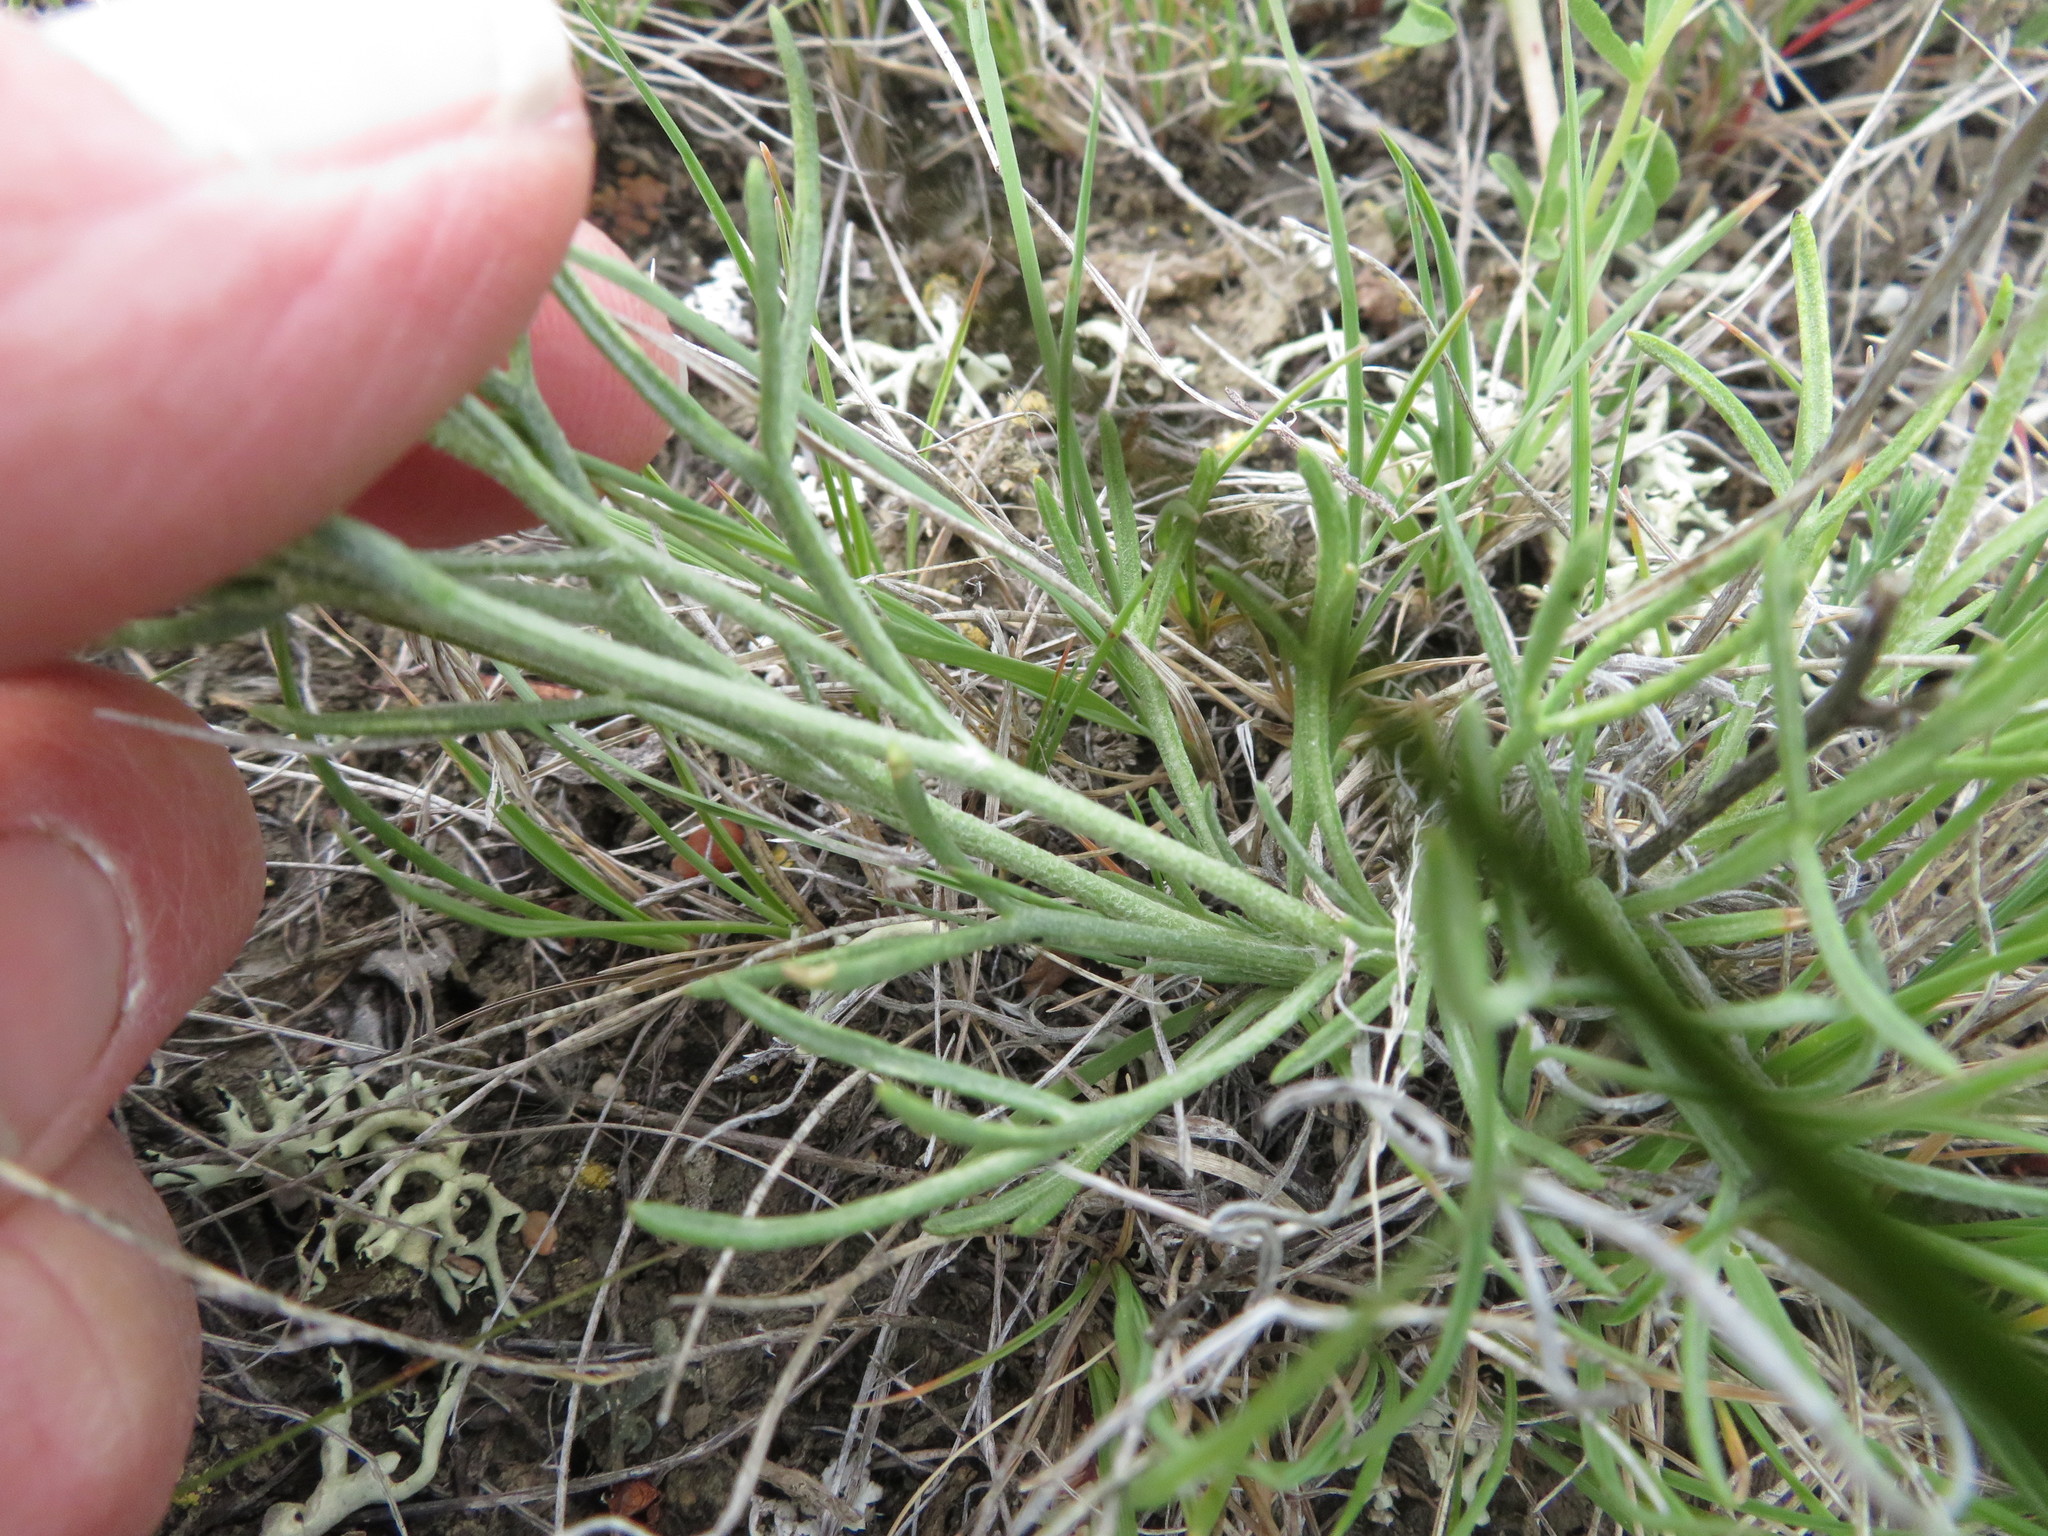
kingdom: Plantae
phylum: Tracheophyta
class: Magnoliopsida
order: Asterales
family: Asteraceae
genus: Hymenoxys
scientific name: Hymenoxys richardsonii
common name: Pingue rubberweed
